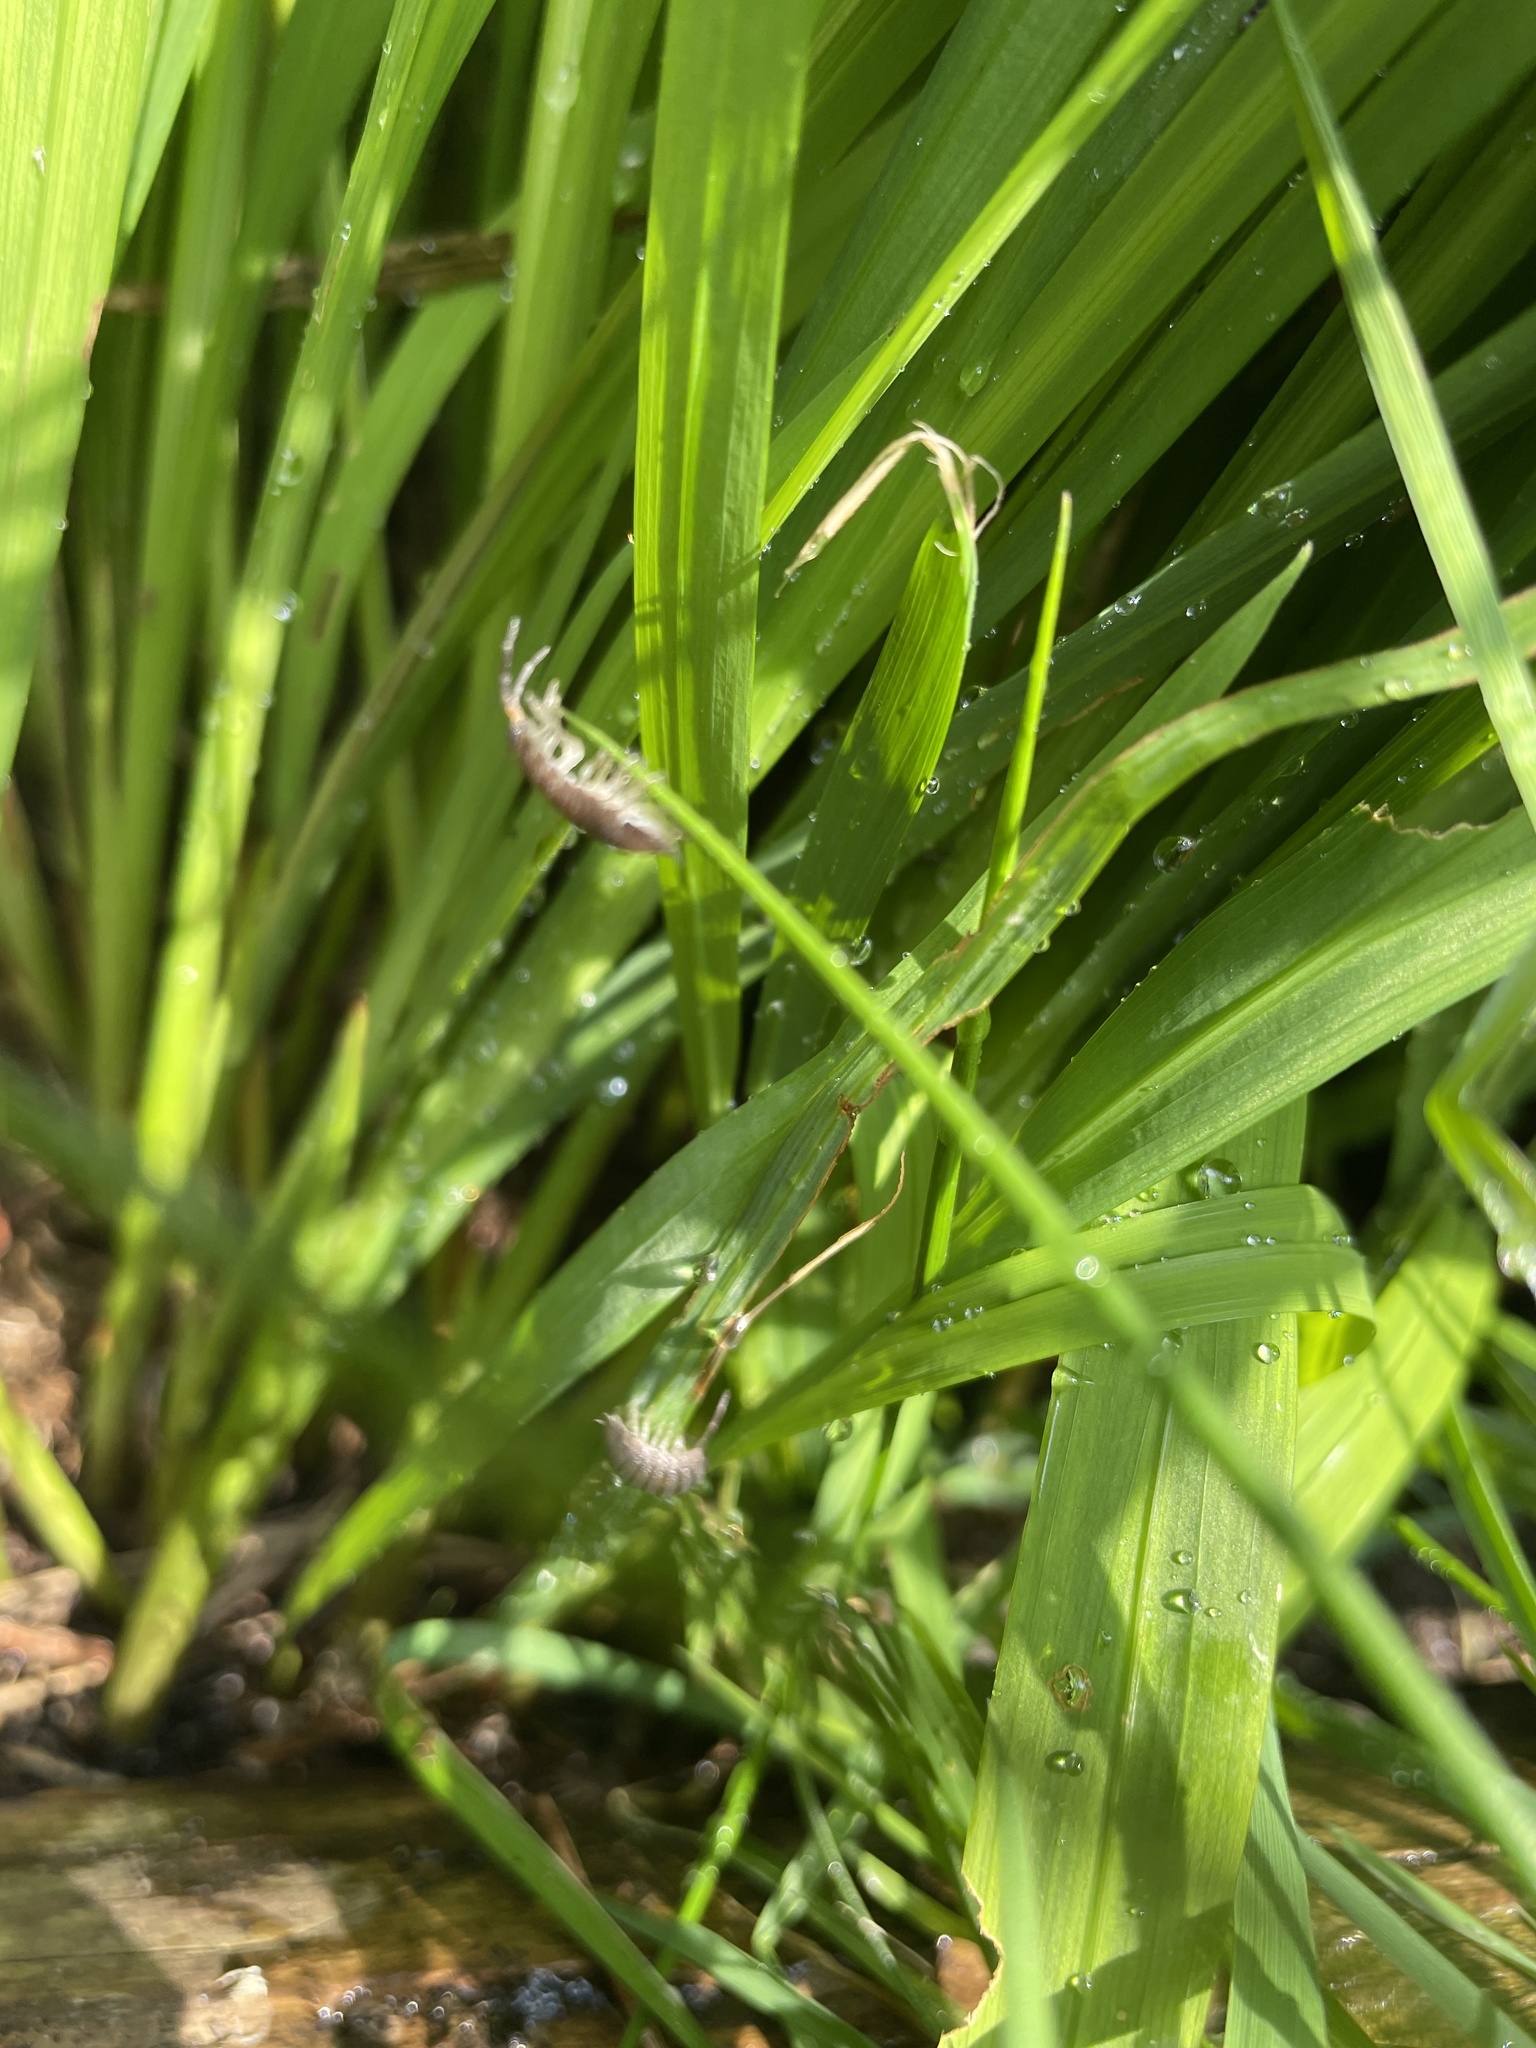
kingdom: Animalia
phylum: Arthropoda
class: Malacostraca
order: Isopoda
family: Porcellionidae
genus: Porcellio
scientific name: Porcellio scaber
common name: Common rough woodlouse
